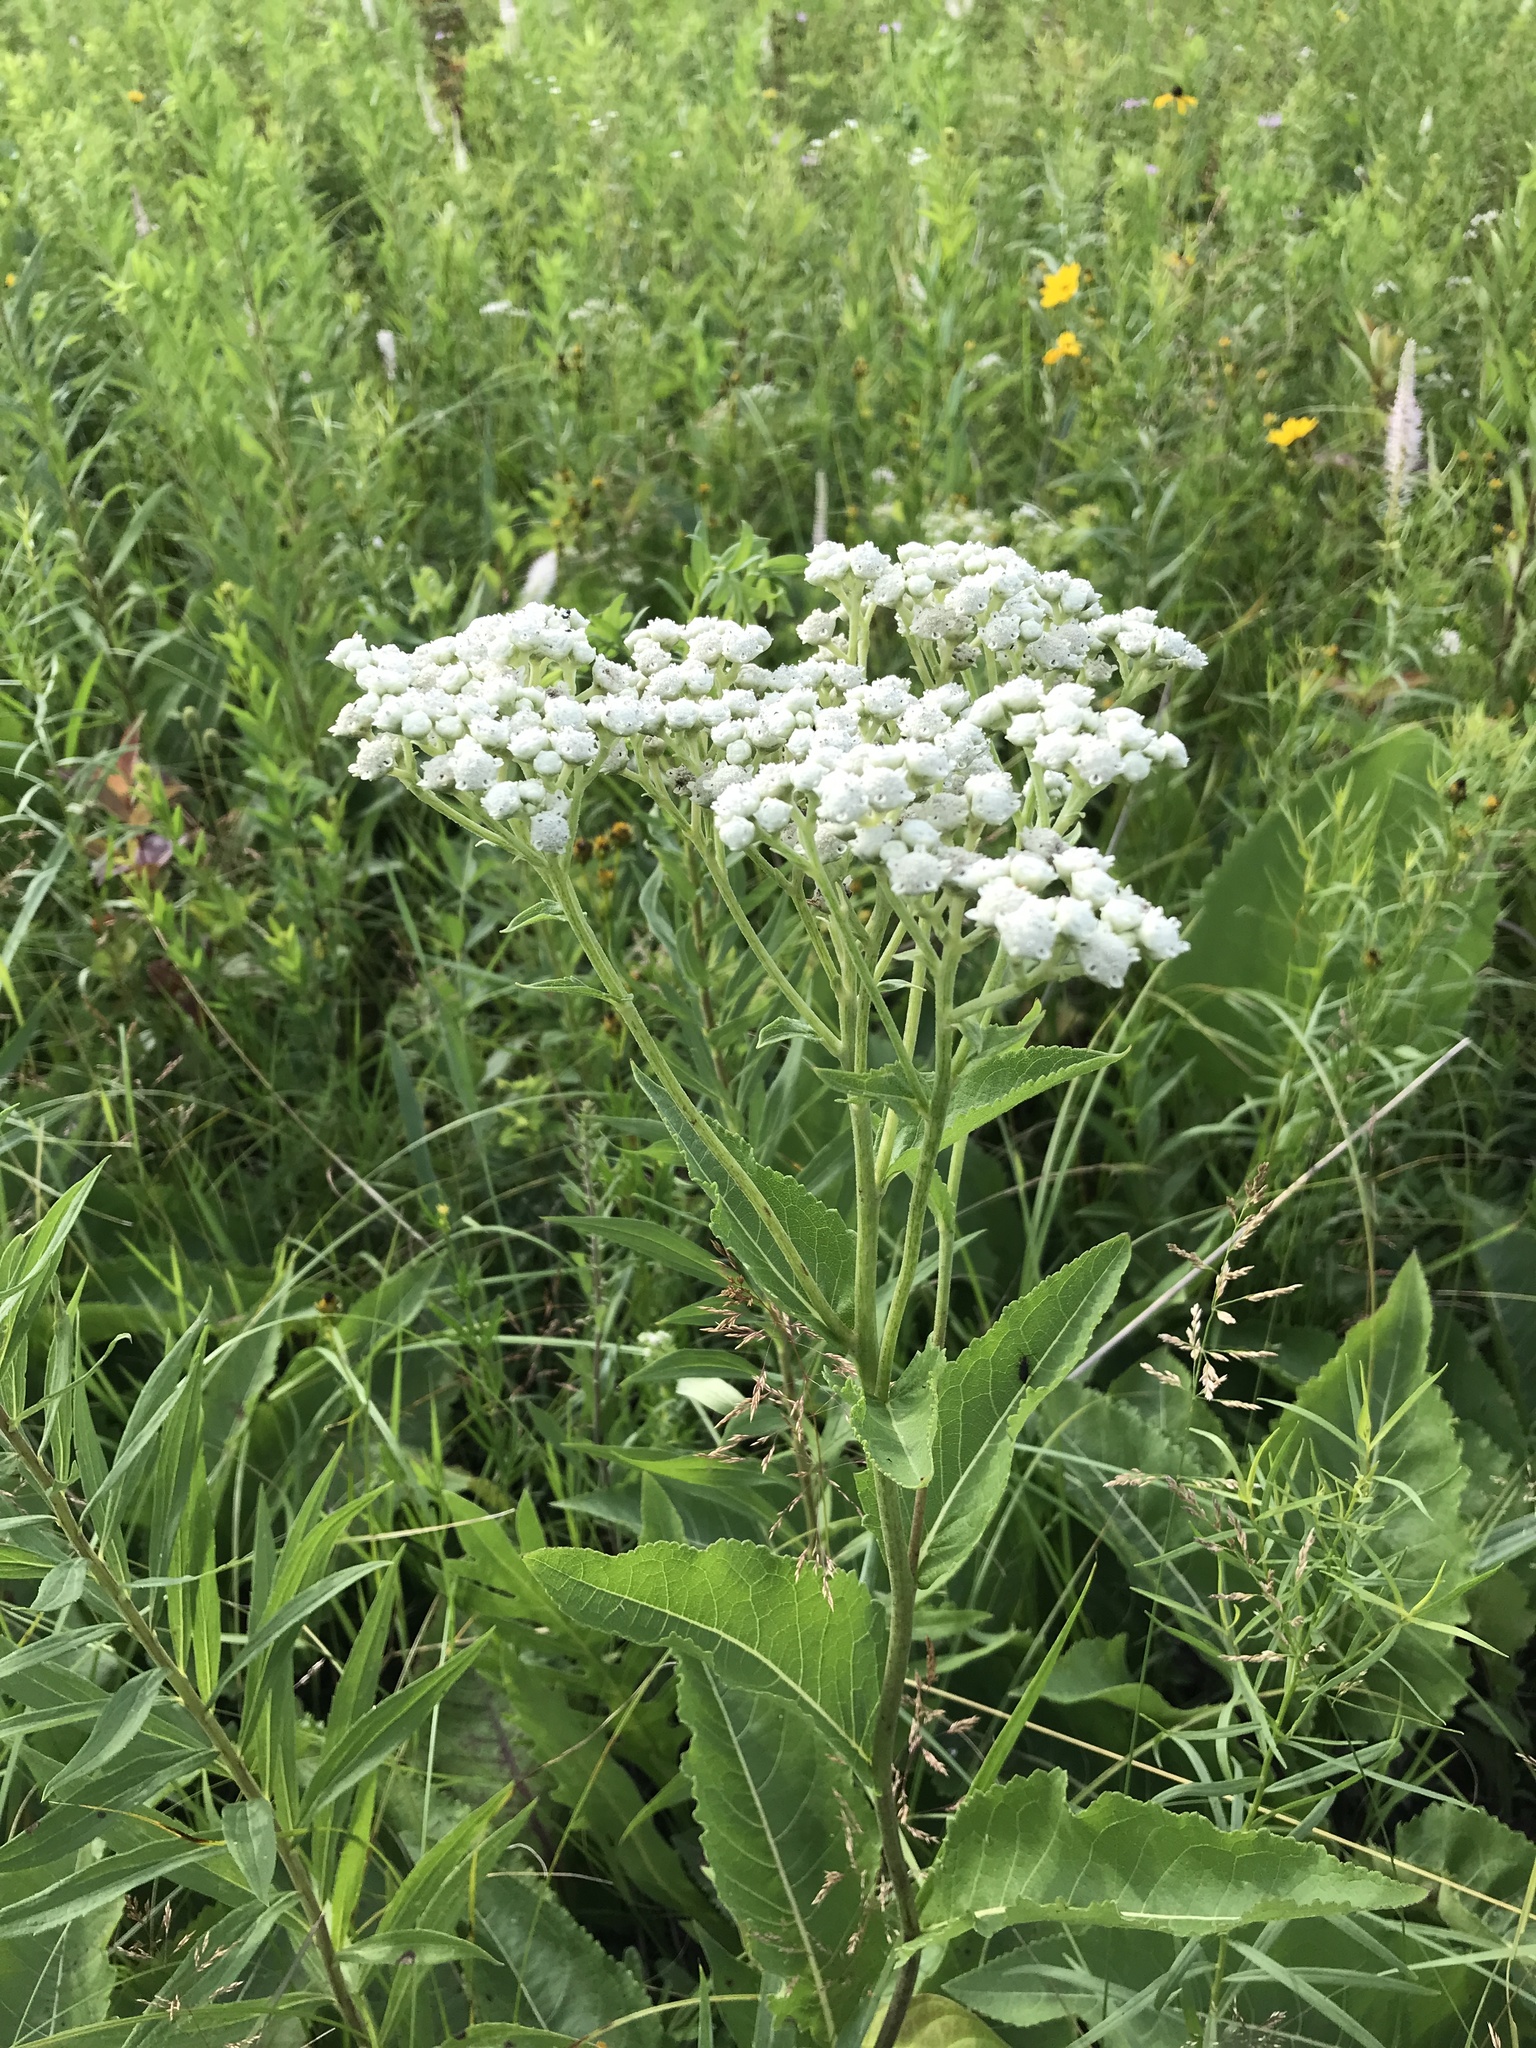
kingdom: Plantae
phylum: Tracheophyta
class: Magnoliopsida
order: Asterales
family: Asteraceae
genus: Parthenium
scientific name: Parthenium integrifolium
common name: American feverfew
